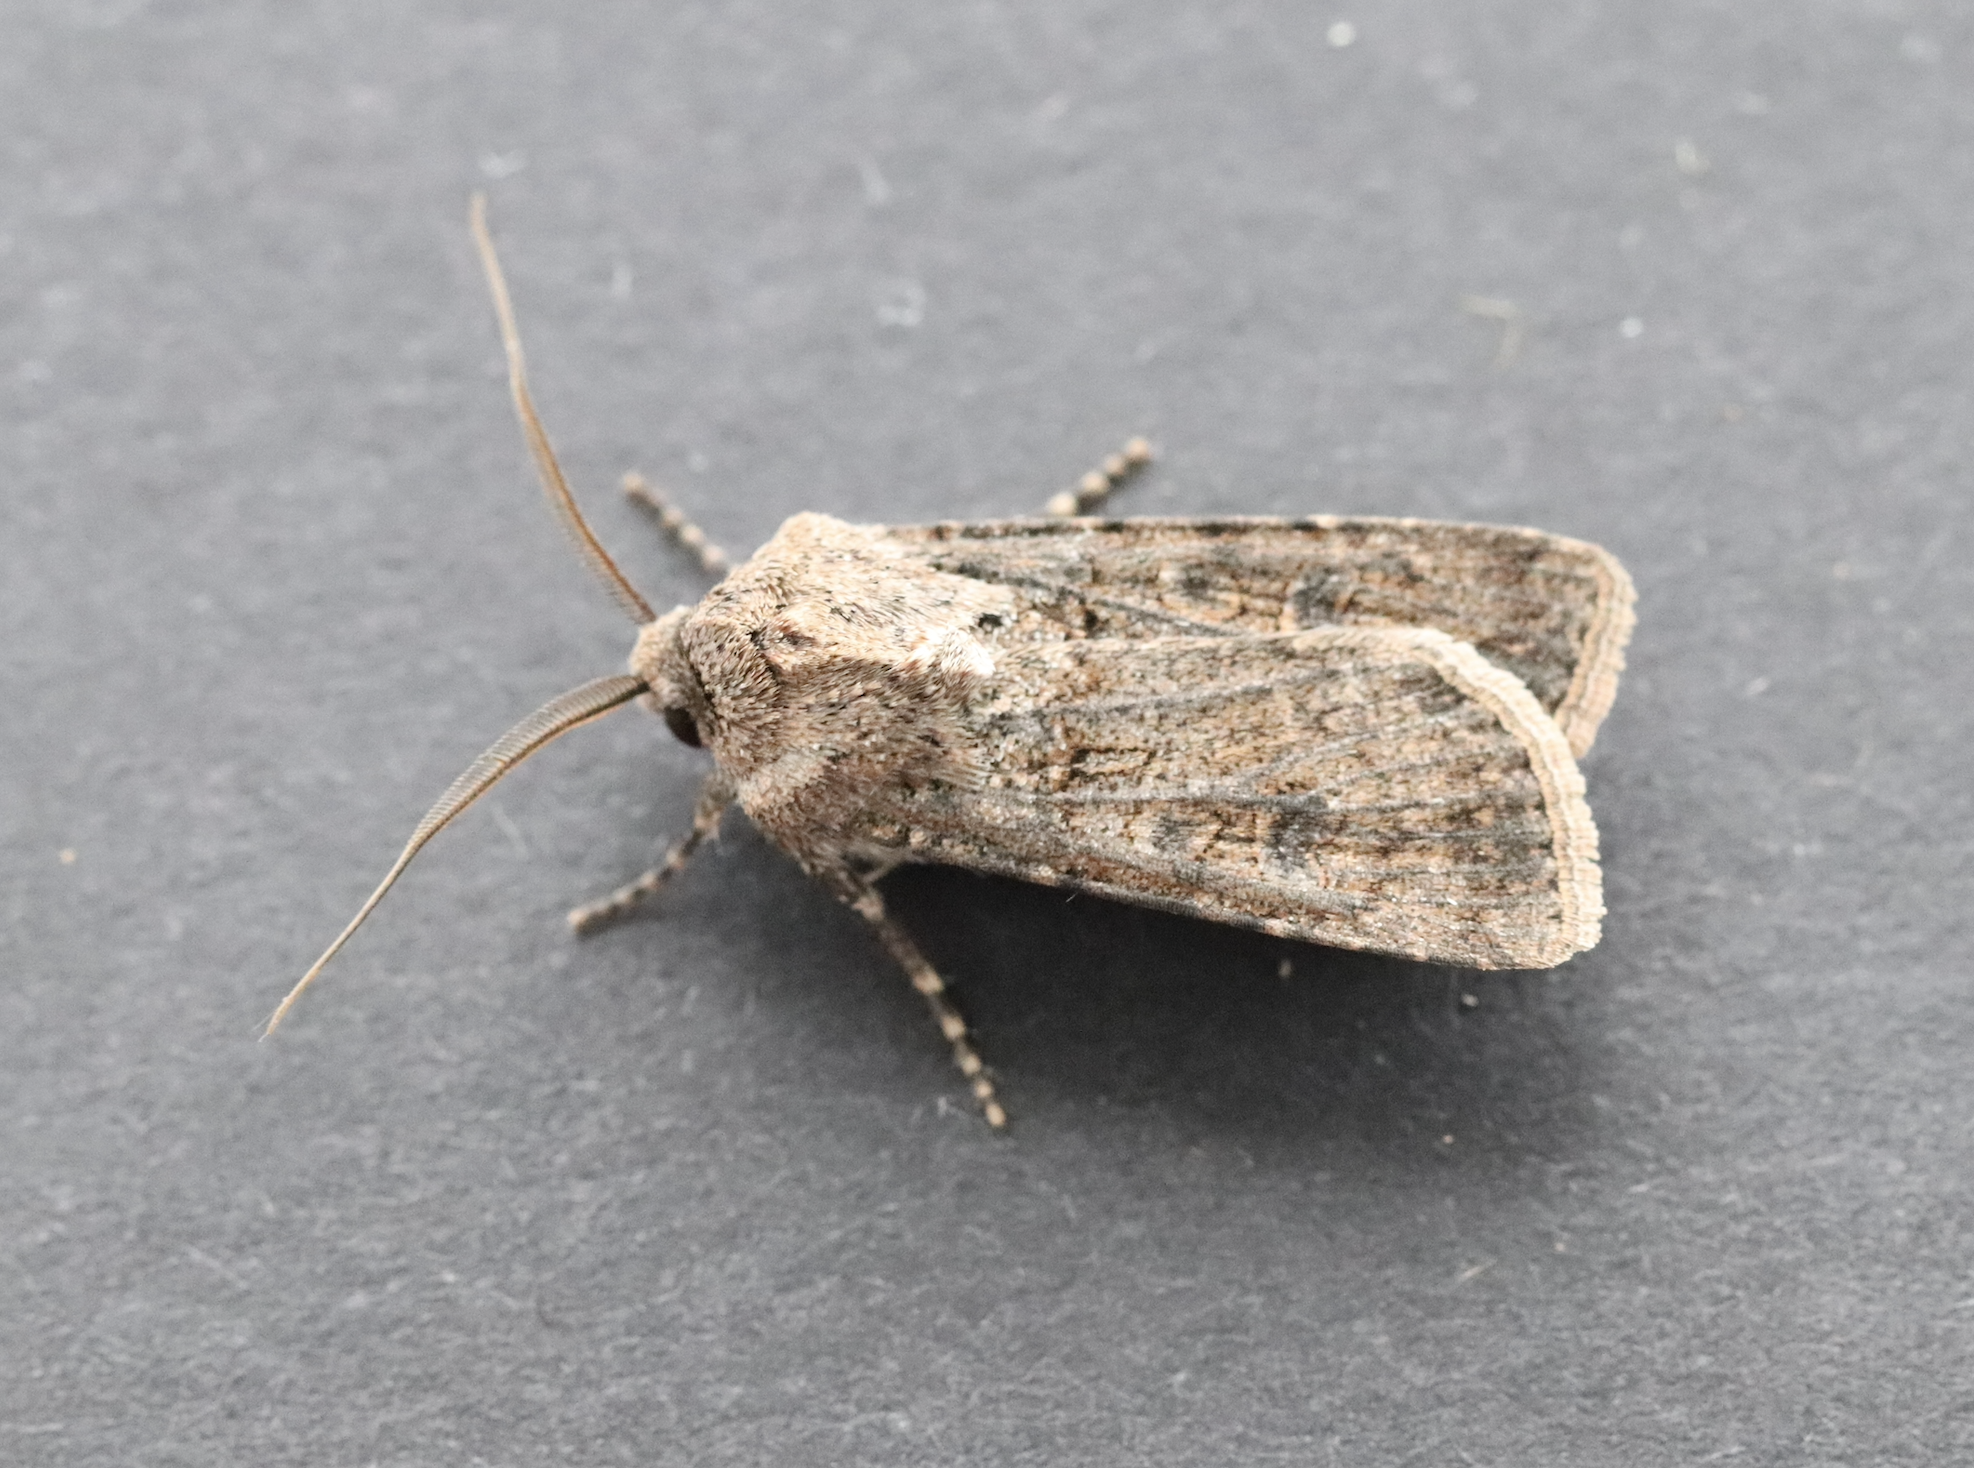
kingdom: Animalia
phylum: Arthropoda
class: Insecta
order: Lepidoptera
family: Noctuidae
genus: Agrotis
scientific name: Agrotis segetum
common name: Turnip moth
